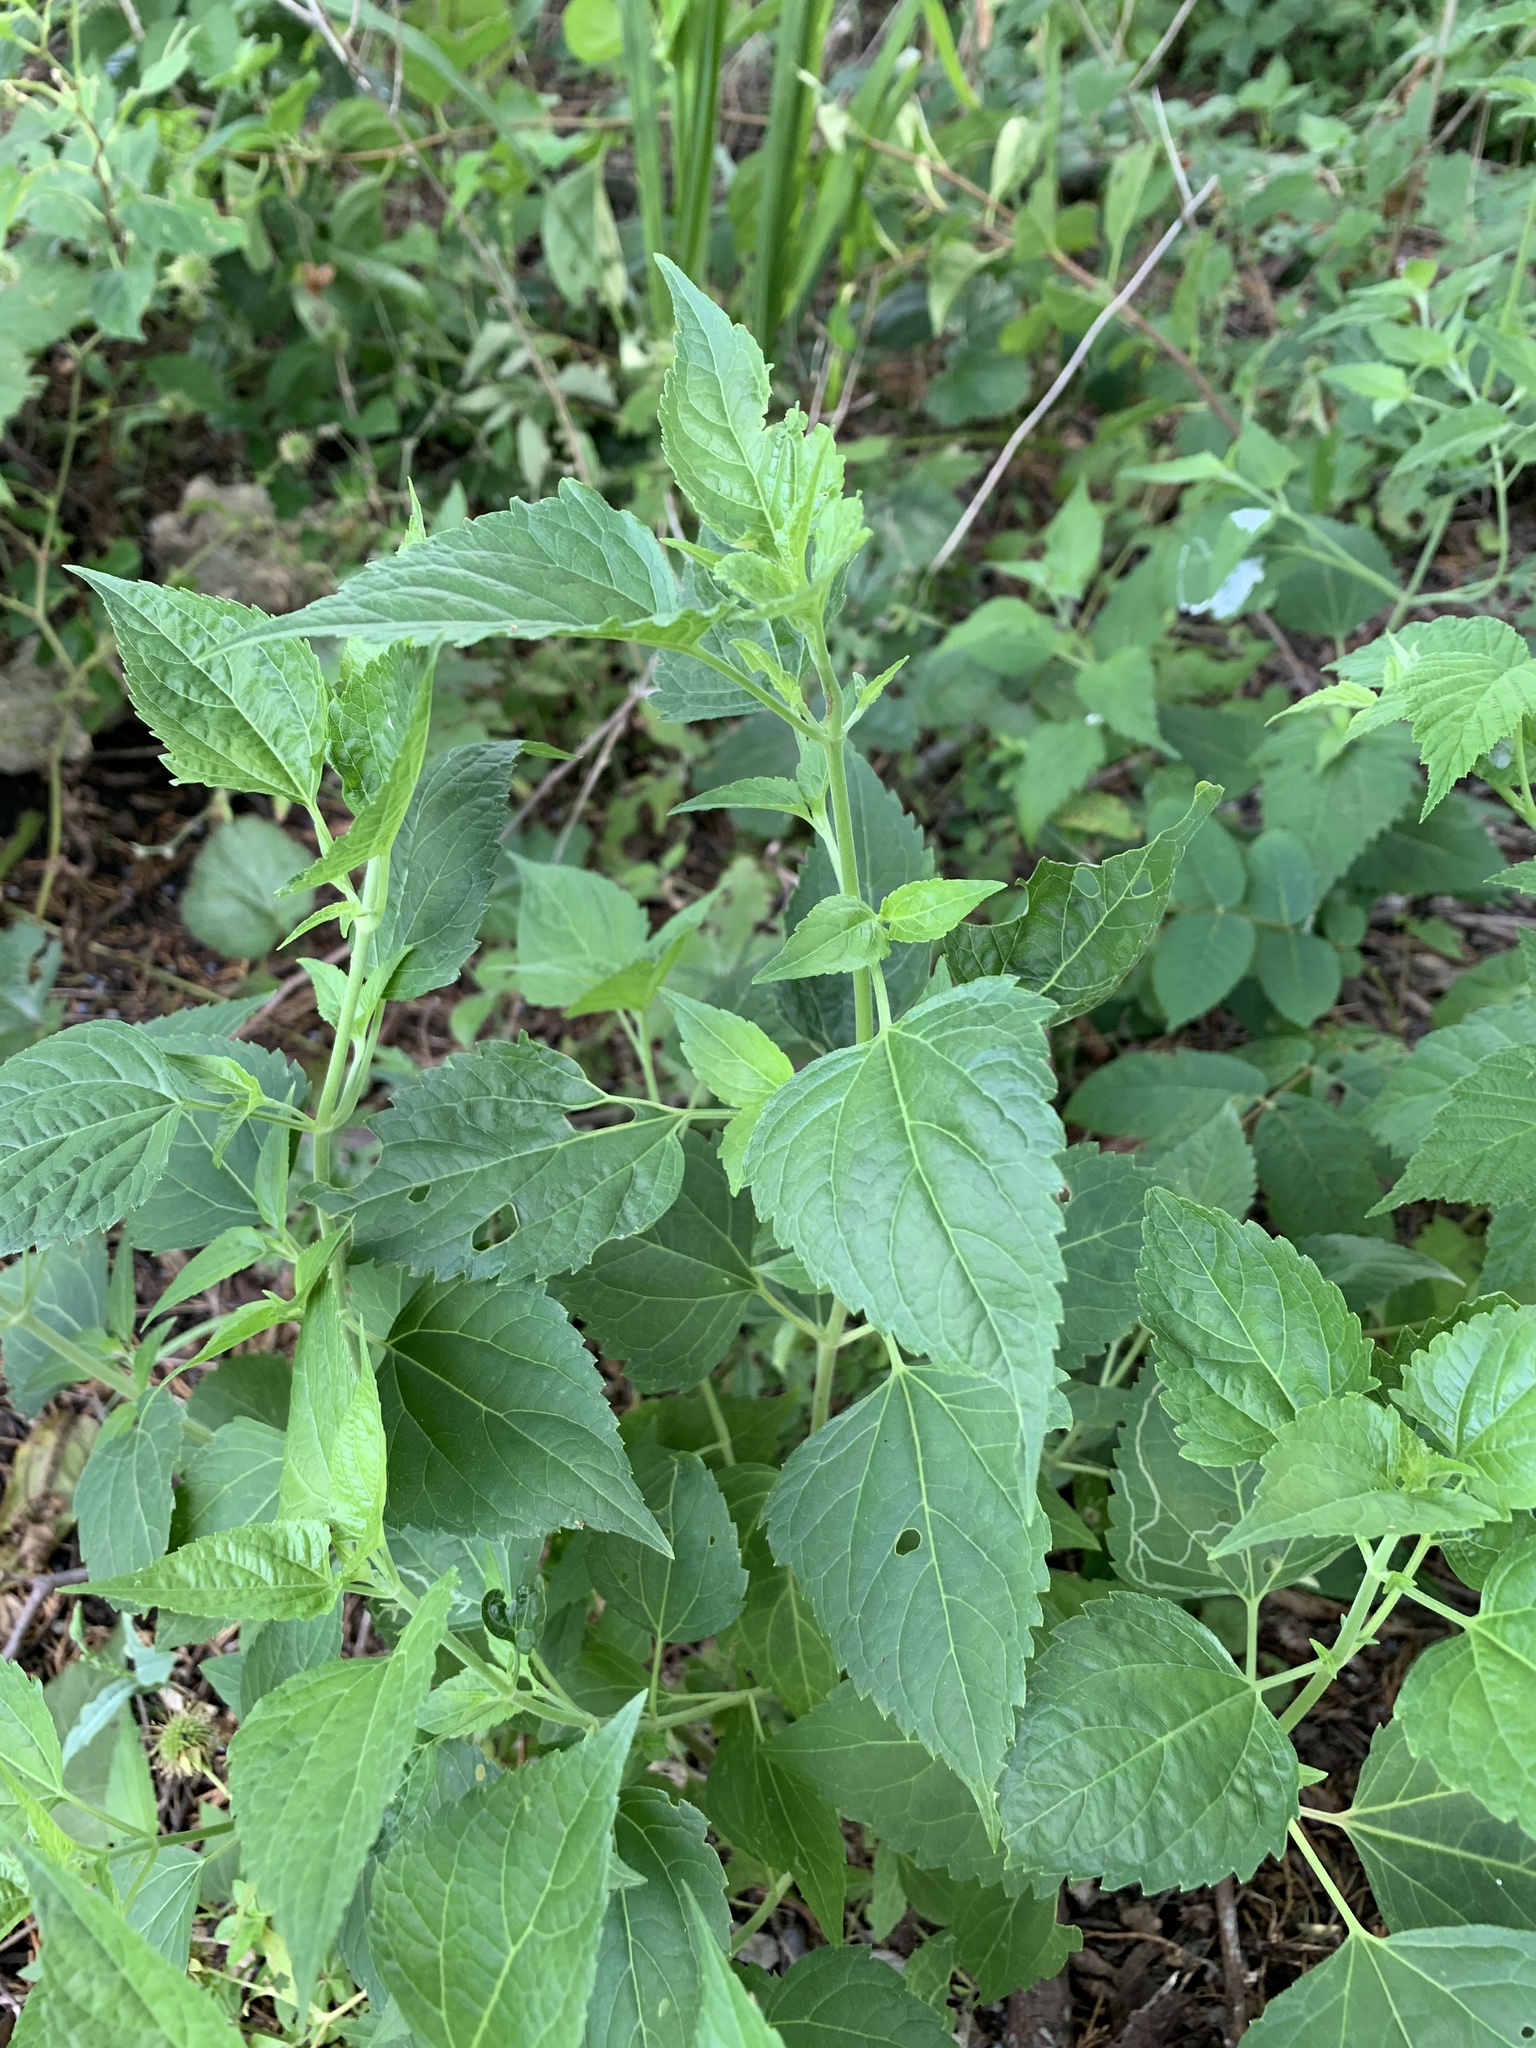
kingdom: Plantae
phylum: Tracheophyta
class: Magnoliopsida
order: Asterales
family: Asteraceae
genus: Ageratina
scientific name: Ageratina altissima
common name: White snakeroot
